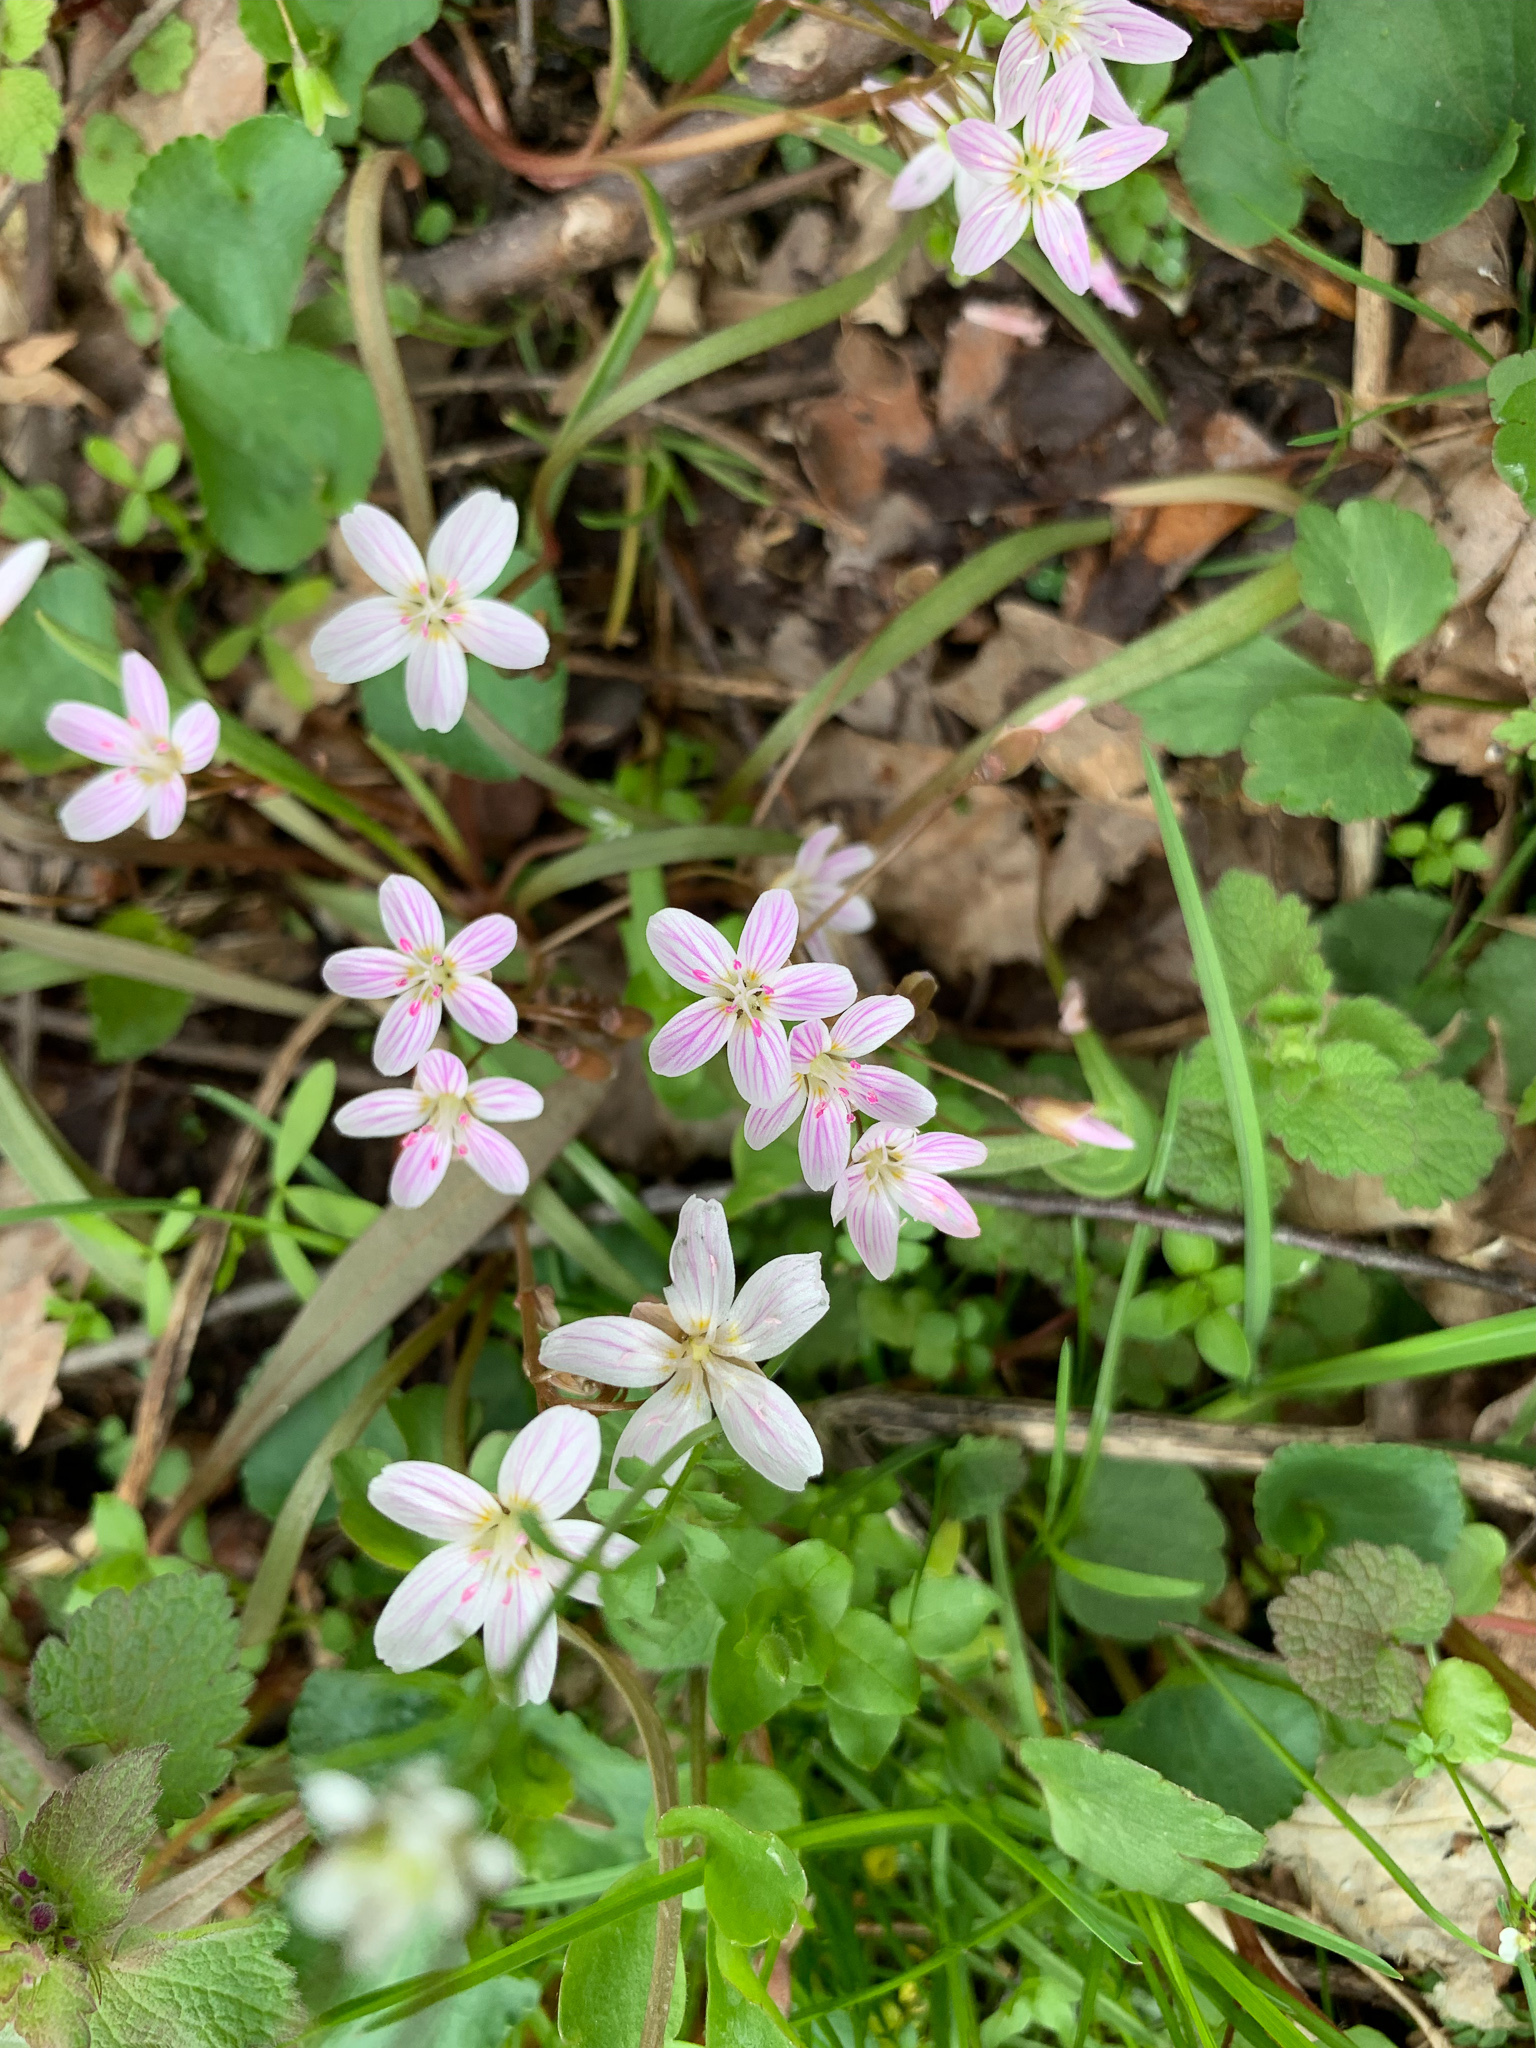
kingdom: Plantae
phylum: Tracheophyta
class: Magnoliopsida
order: Caryophyllales
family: Montiaceae
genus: Claytonia
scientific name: Claytonia virginica
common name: Virginia springbeauty
